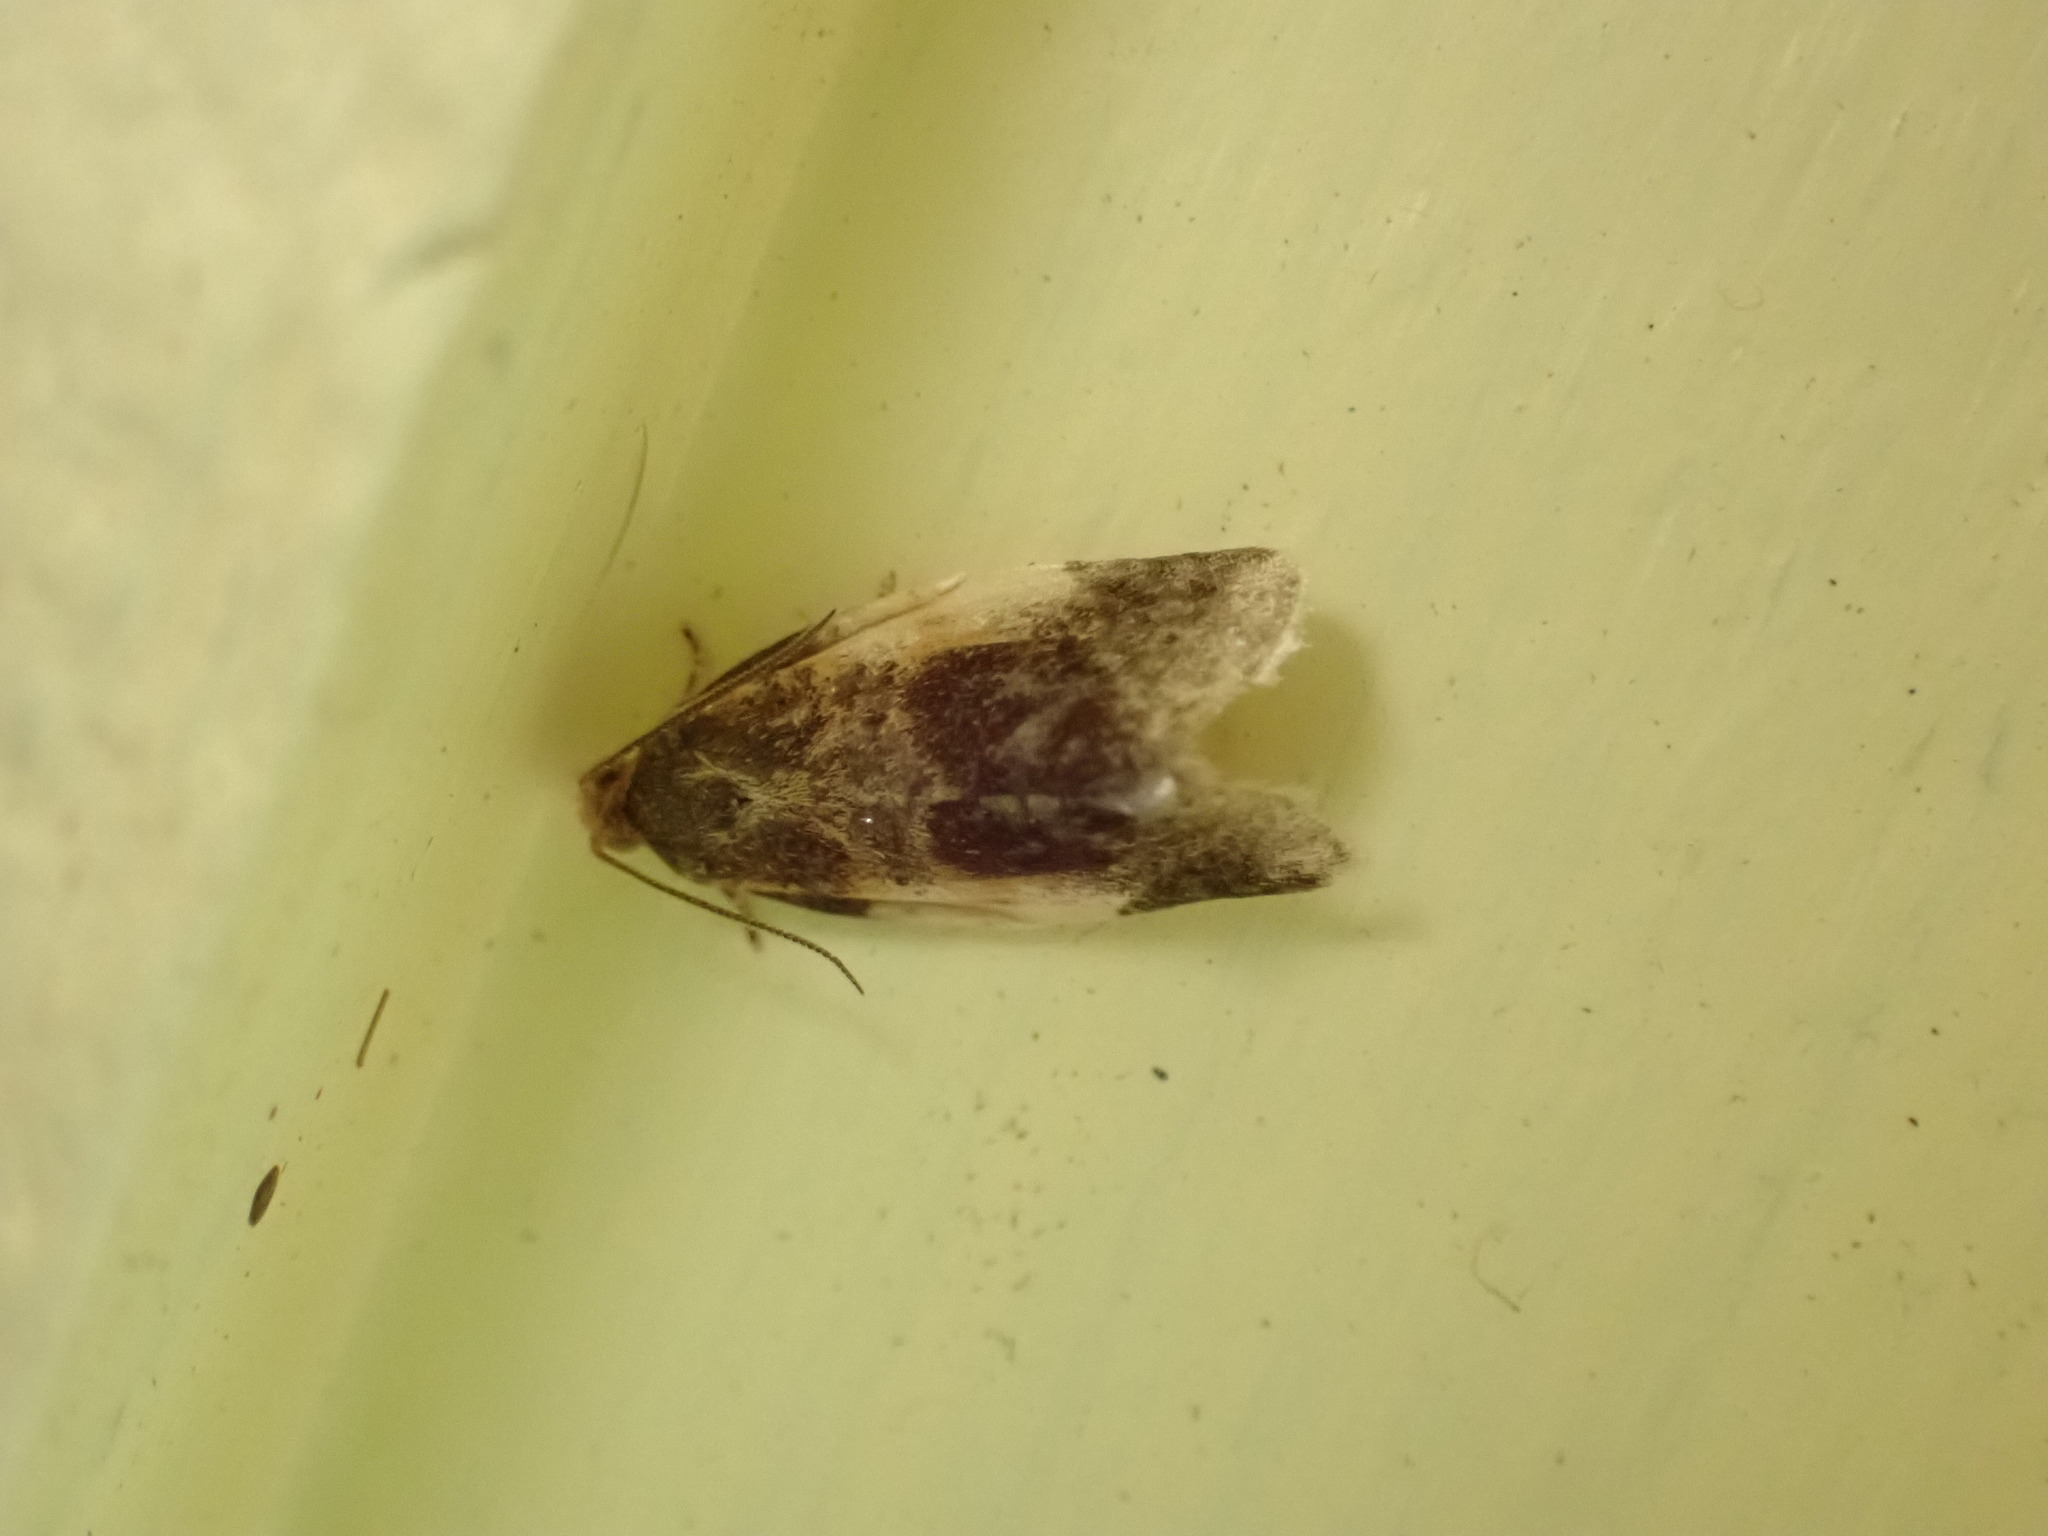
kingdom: Animalia
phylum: Arthropoda
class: Insecta
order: Lepidoptera
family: Tortricidae
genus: Clepsis
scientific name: Clepsis melaleucanus
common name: American apple tortrix
